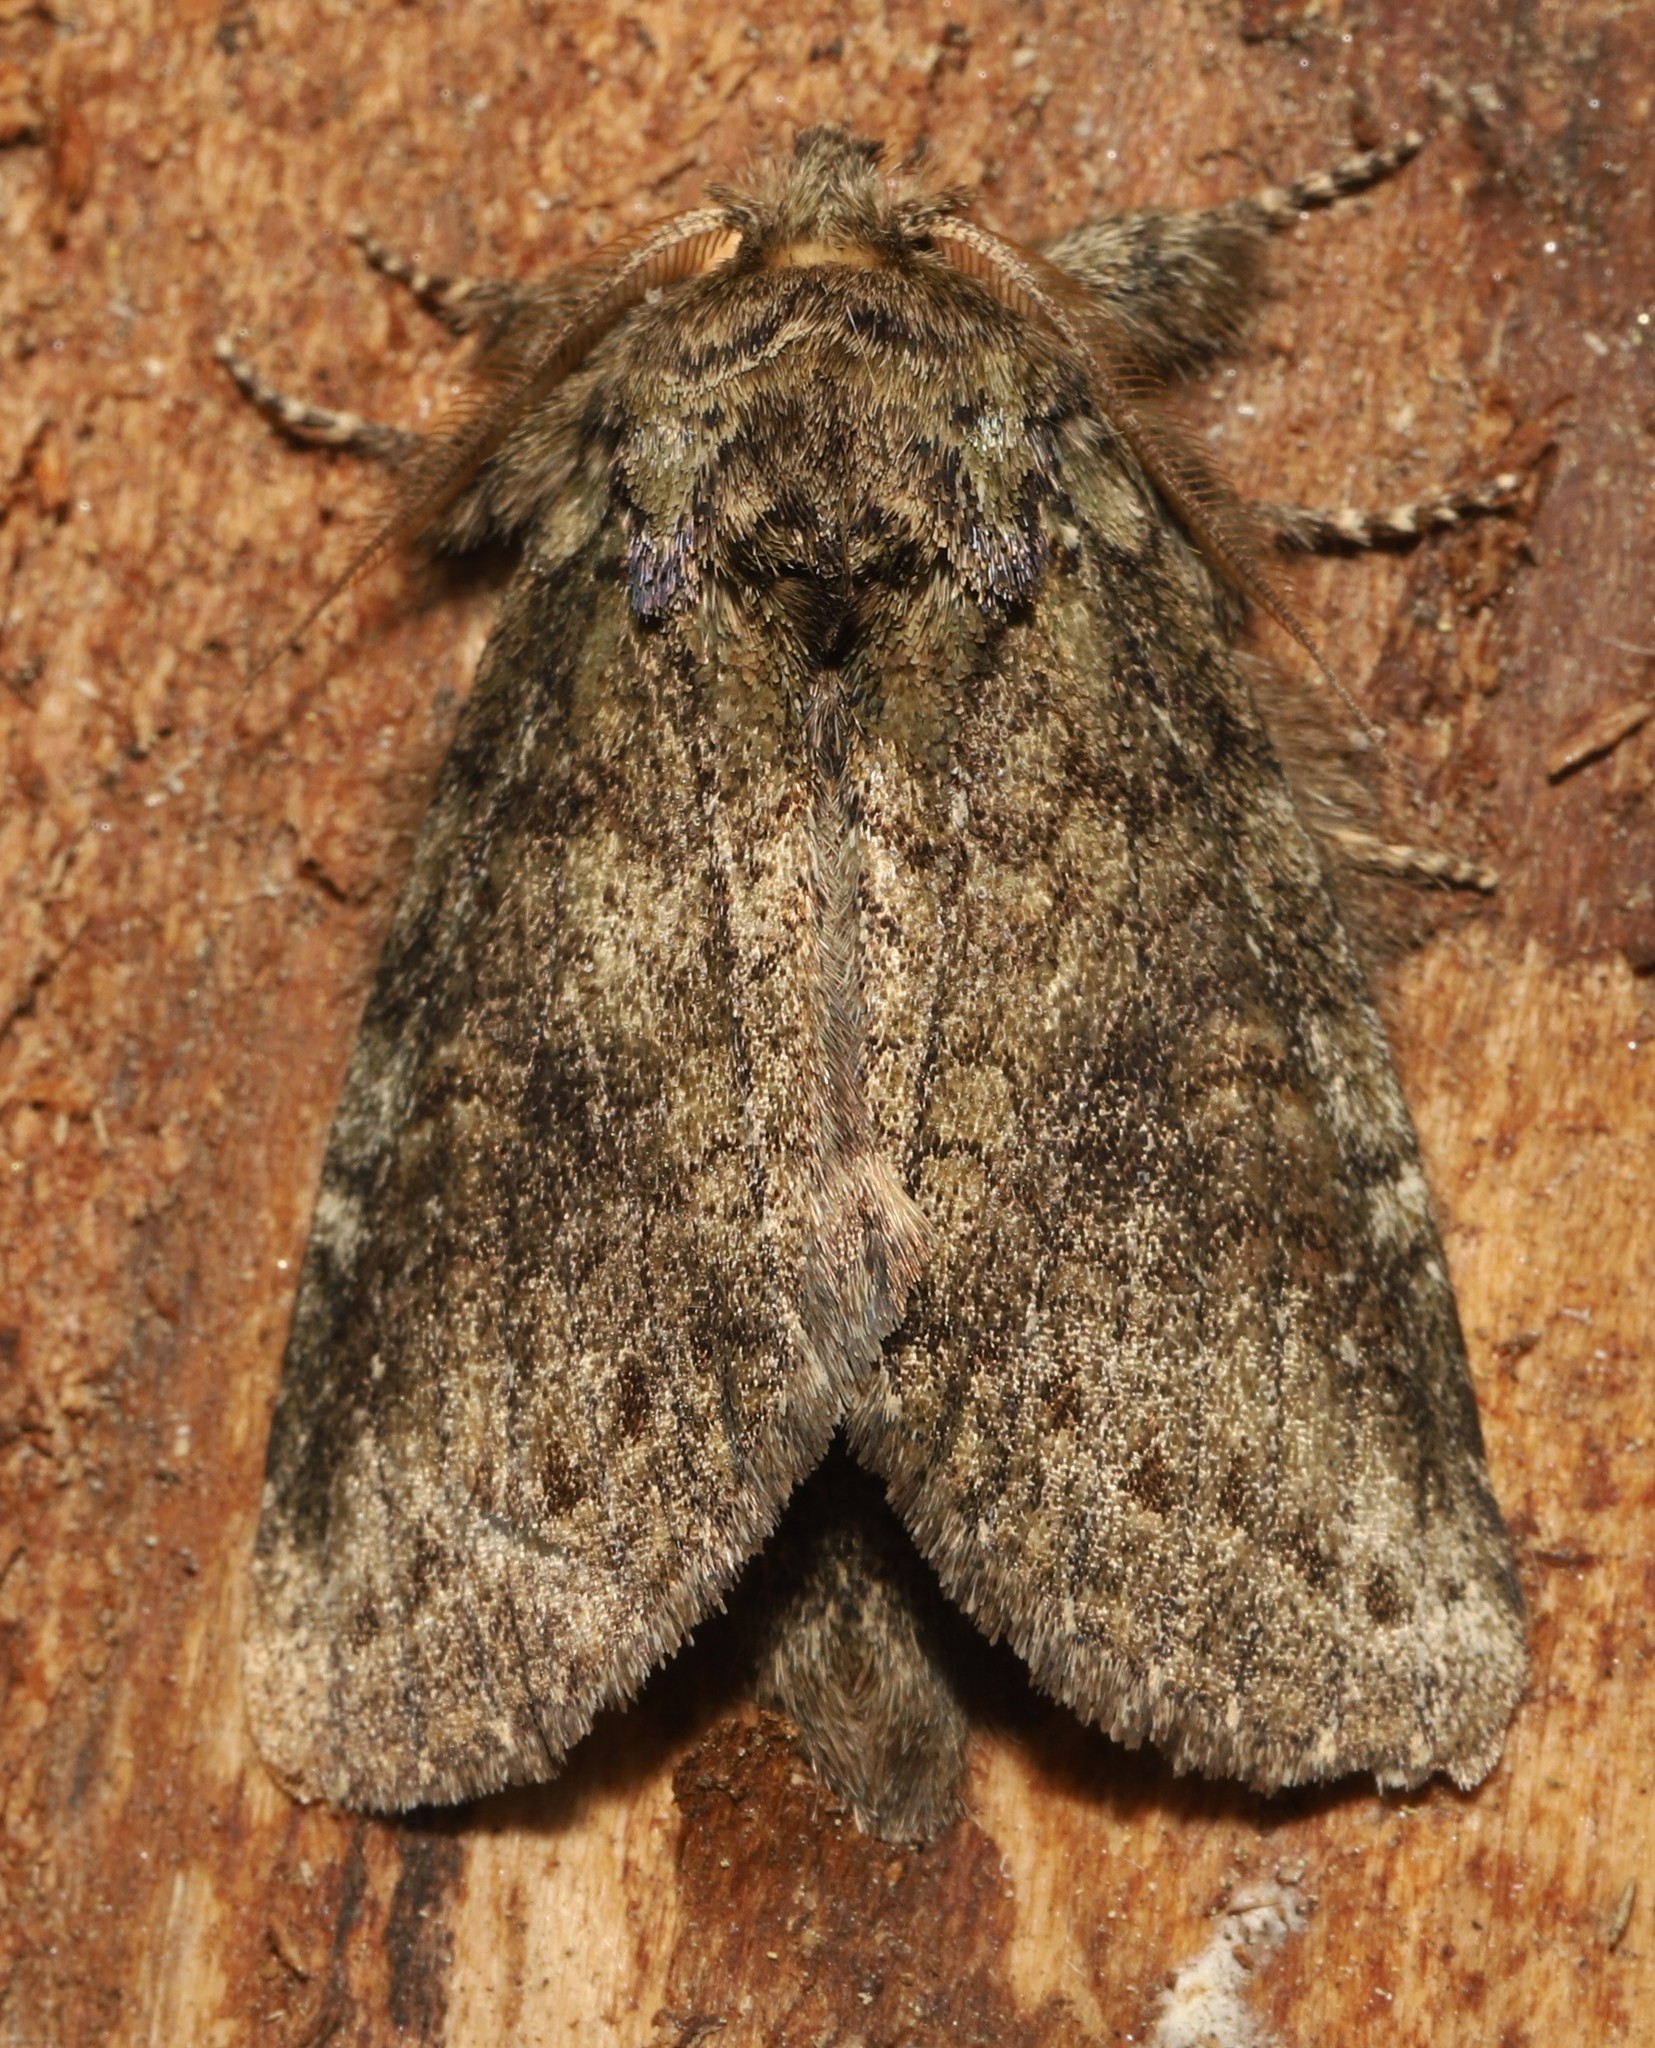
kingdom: Animalia
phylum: Arthropoda
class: Insecta
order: Lepidoptera
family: Notodontidae
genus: Disphragis
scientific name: Disphragis Cecrita guttivitta
